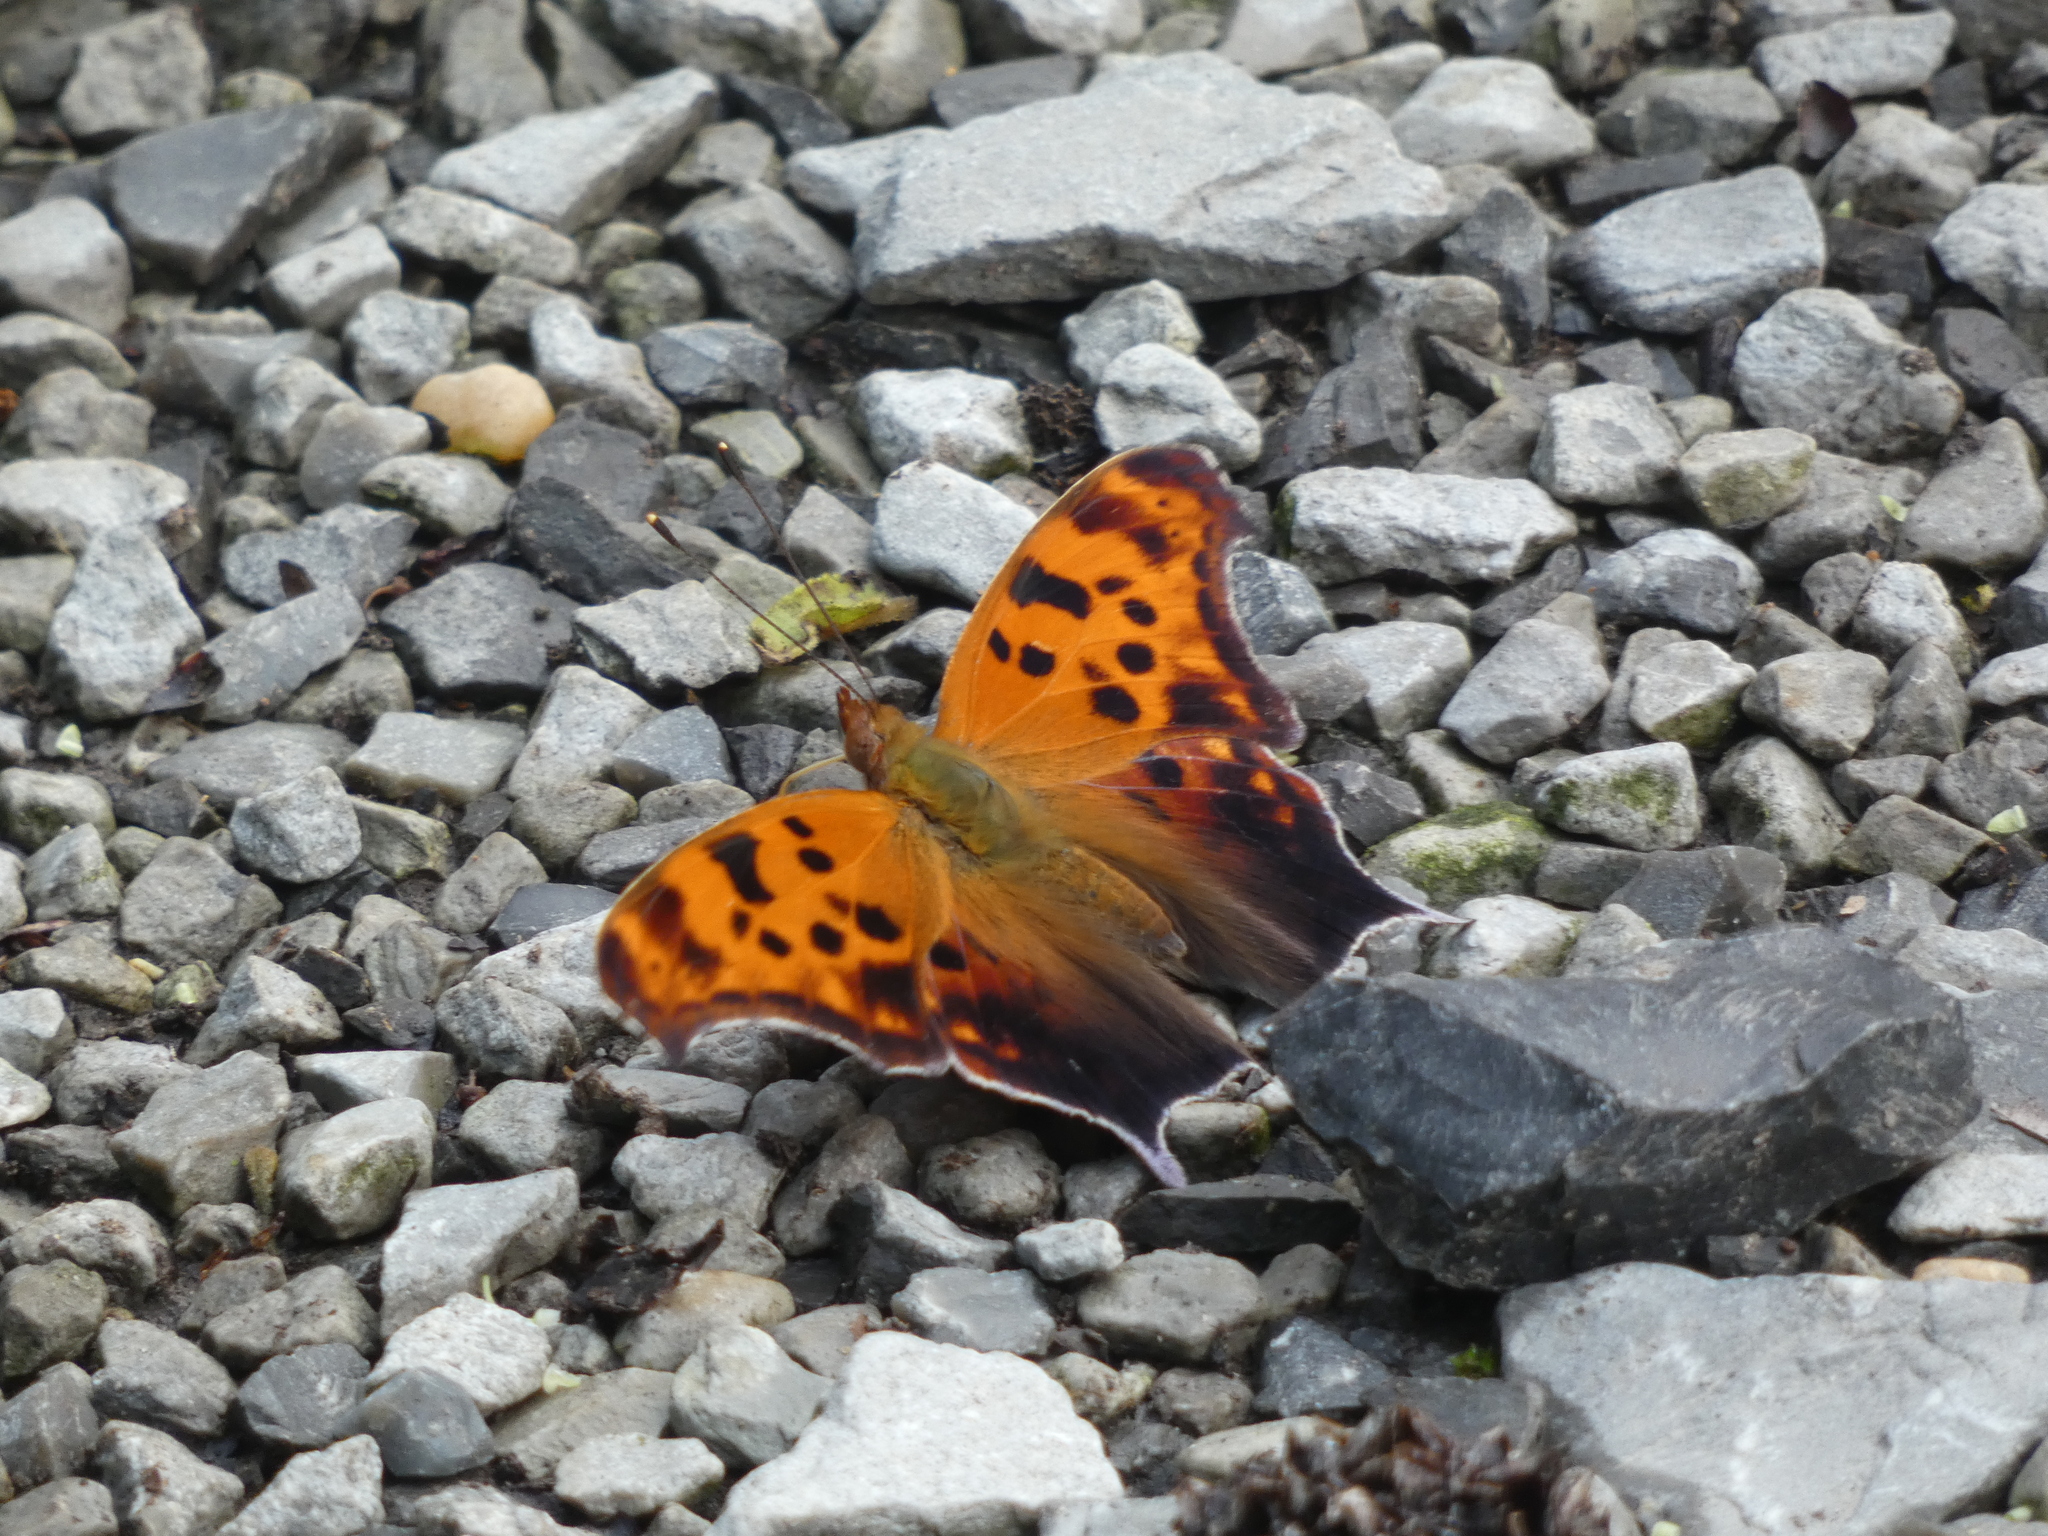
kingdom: Animalia
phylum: Arthropoda
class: Insecta
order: Lepidoptera
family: Nymphalidae
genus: Polygonia
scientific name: Polygonia interrogationis
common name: Question mark
